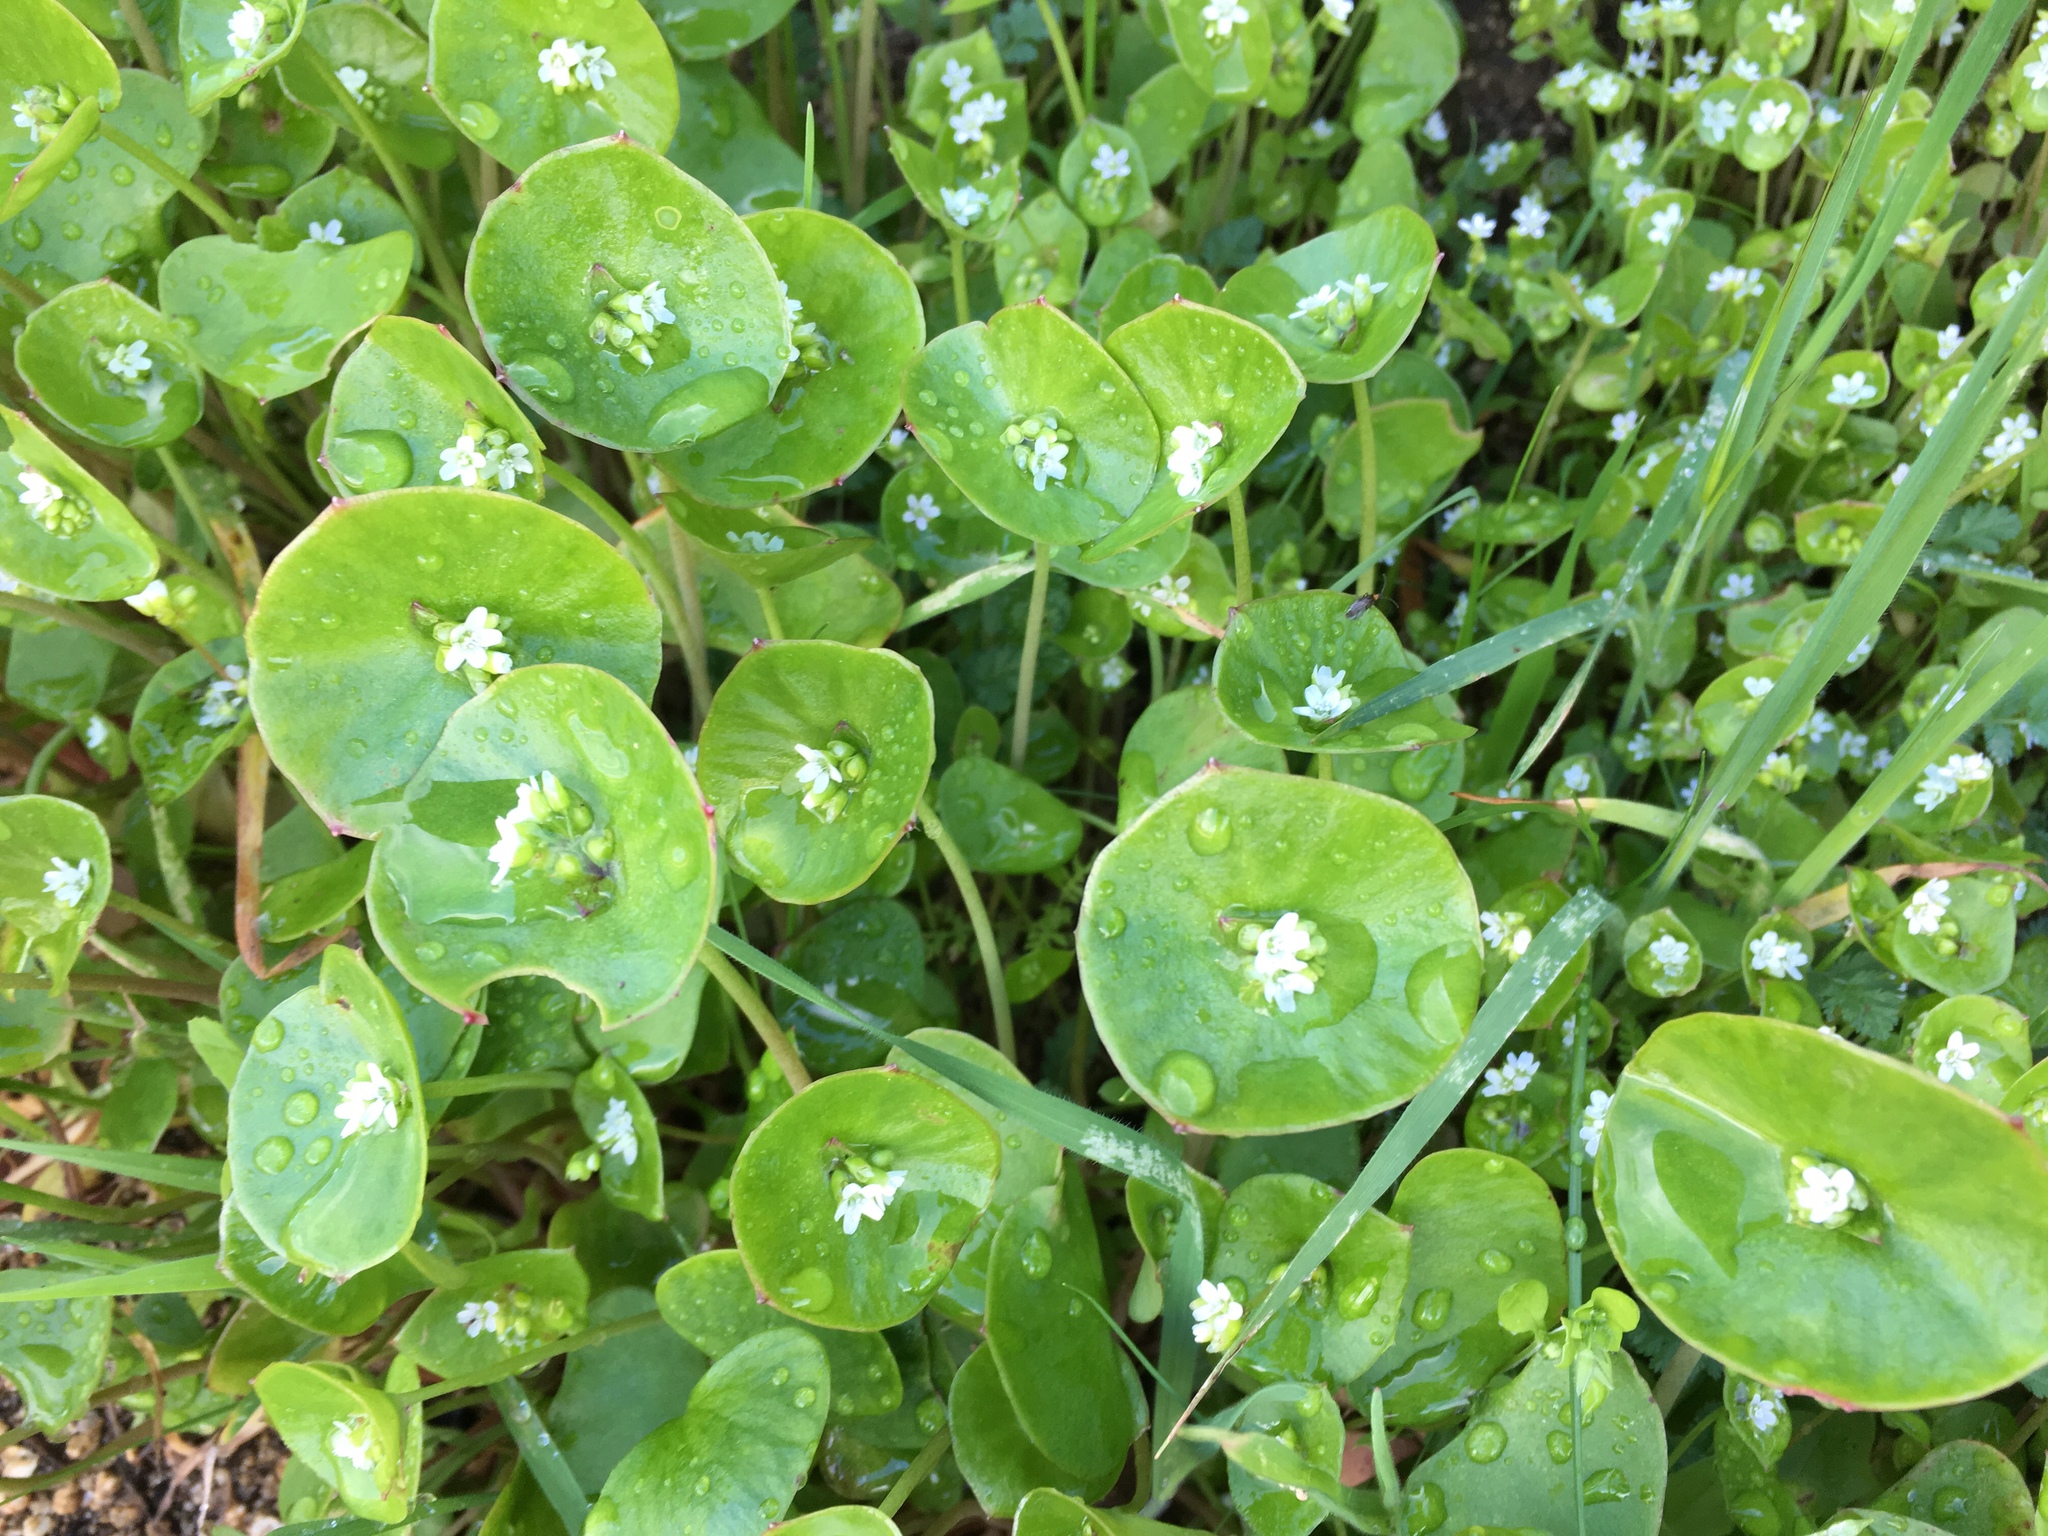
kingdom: Plantae
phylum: Tracheophyta
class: Magnoliopsida
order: Caryophyllales
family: Montiaceae
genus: Claytonia
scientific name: Claytonia perfoliata
